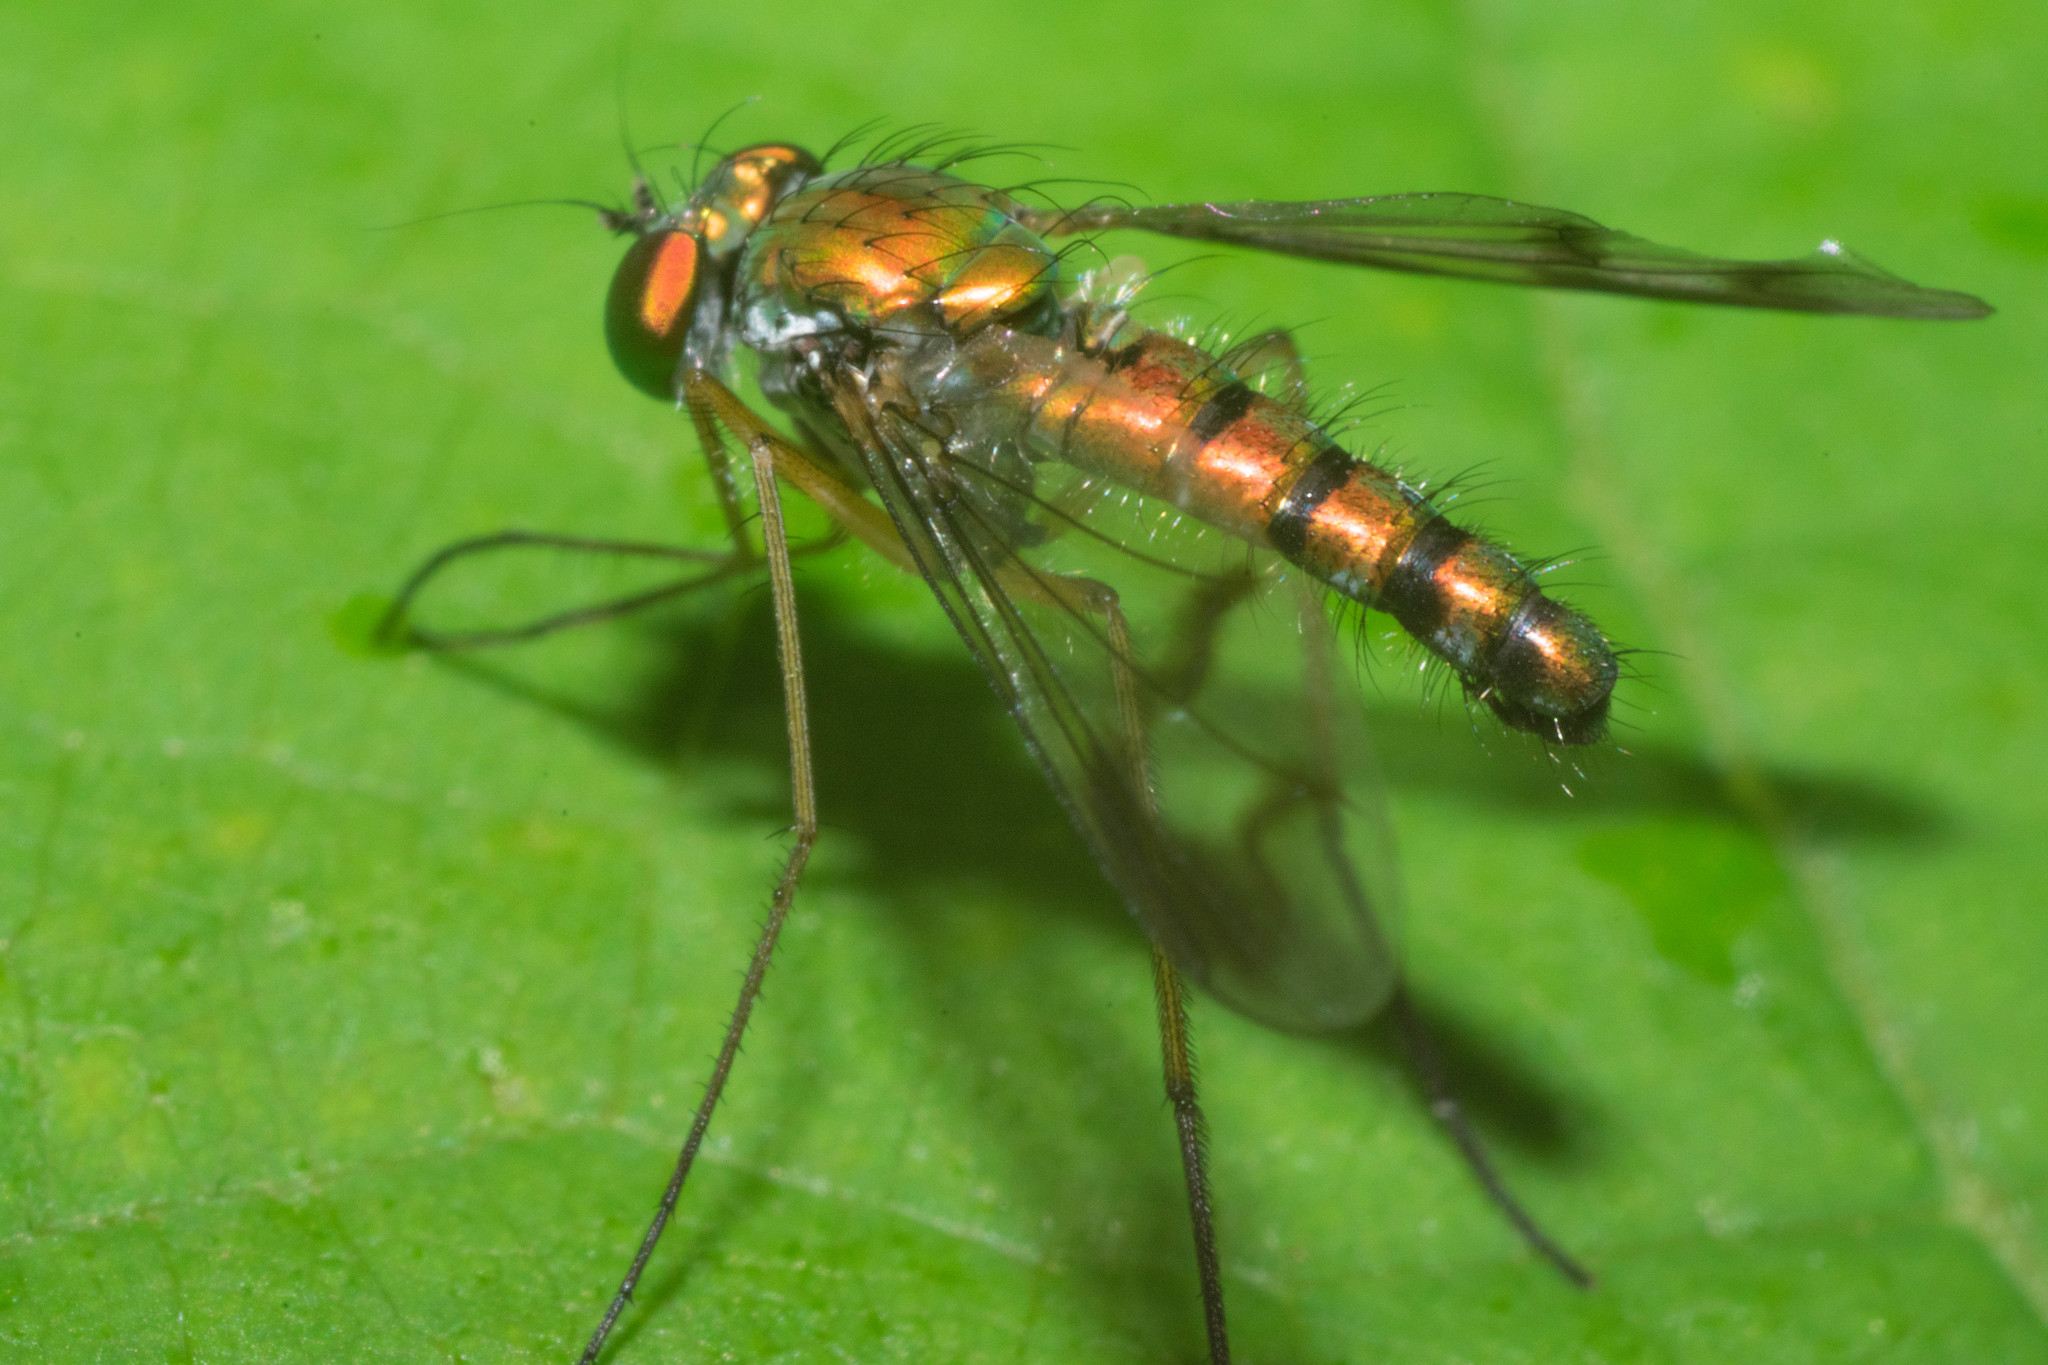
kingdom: Animalia
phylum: Arthropoda
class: Insecta
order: Diptera
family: Dolichopodidae
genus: Condylostylus
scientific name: Condylostylus viridicoxa
